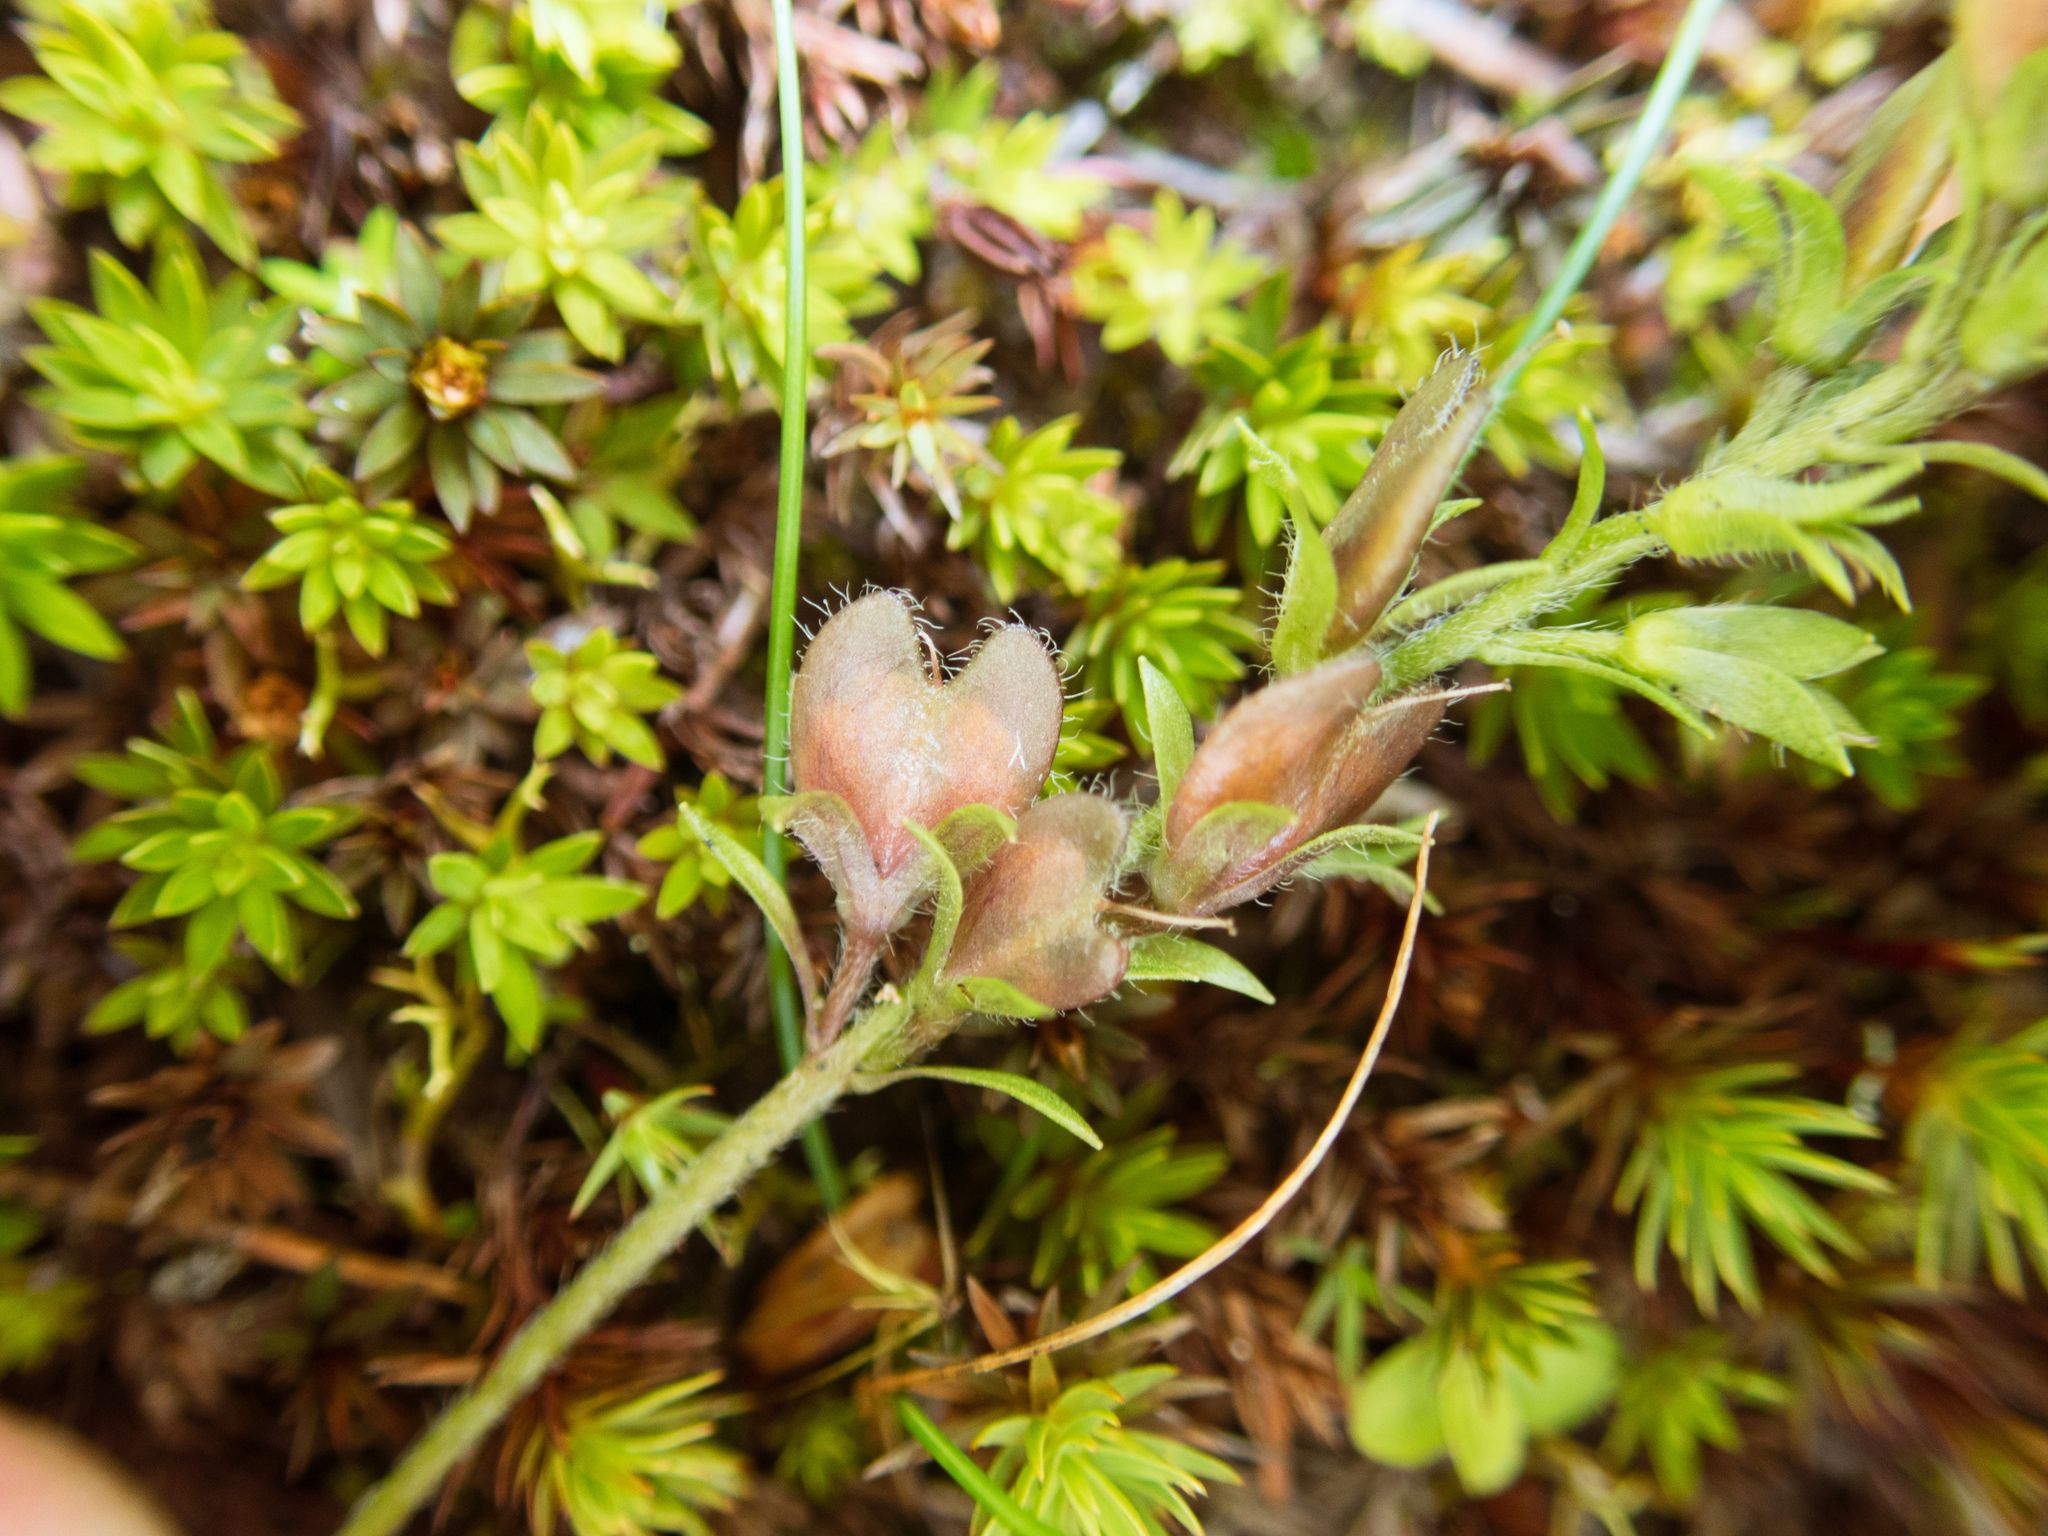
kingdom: Plantae
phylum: Tracheophyta
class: Magnoliopsida
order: Lamiales
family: Plantaginaceae
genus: Veronica
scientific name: Veronica morrisonicola
